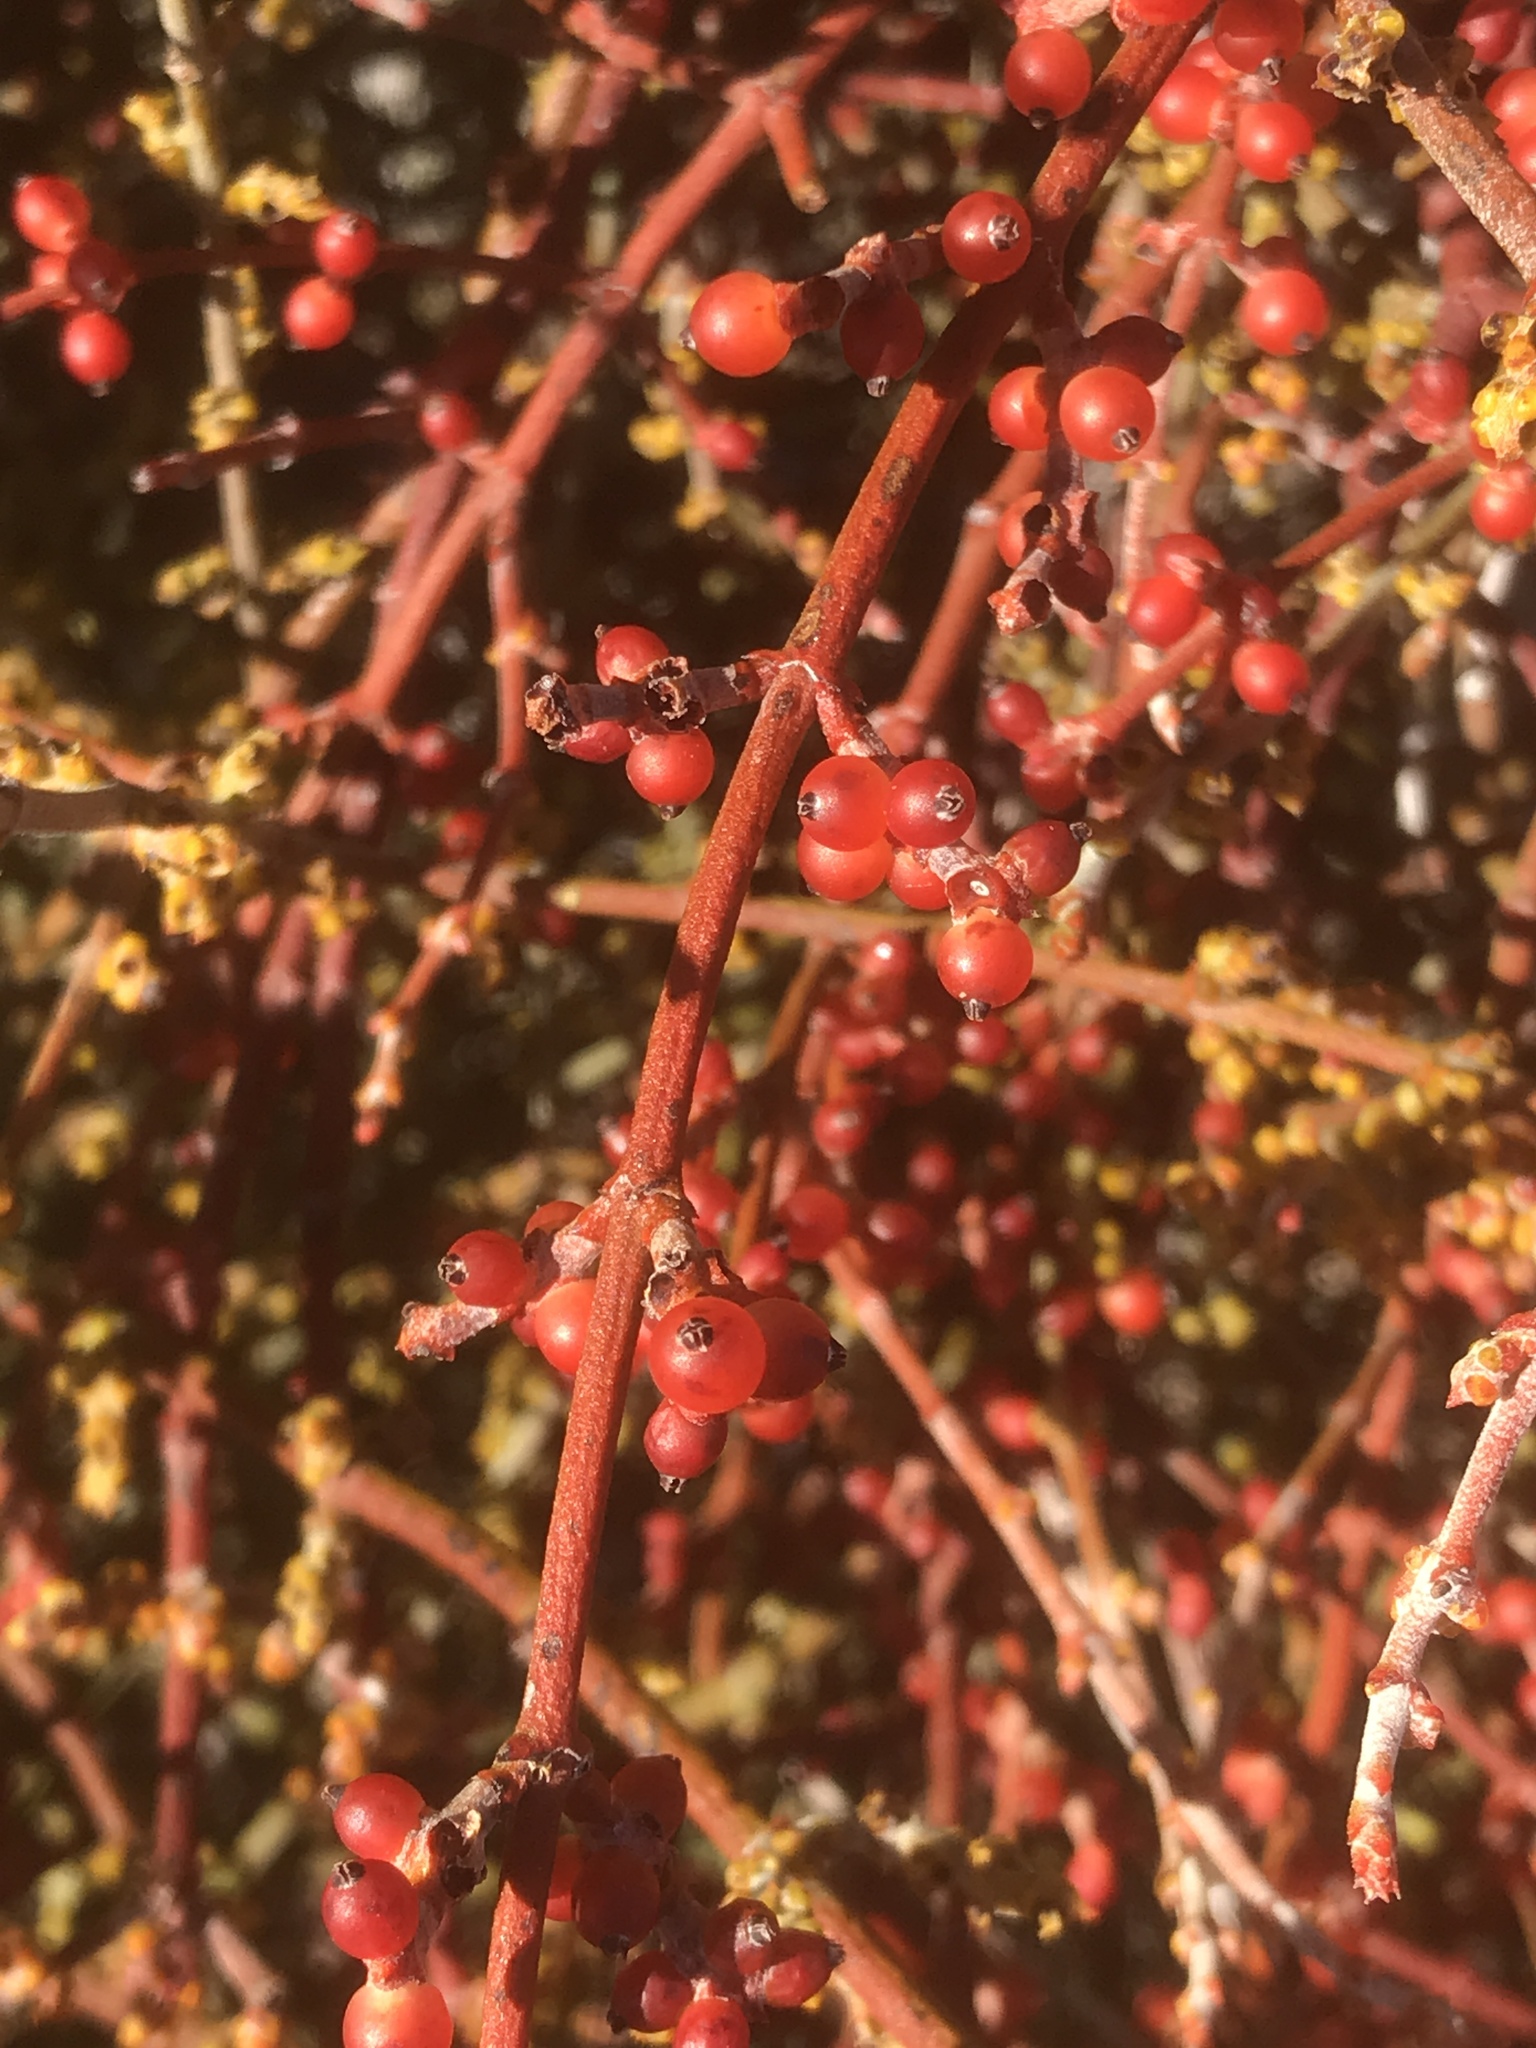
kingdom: Plantae
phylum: Tracheophyta
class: Magnoliopsida
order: Santalales
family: Viscaceae
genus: Phoradendron
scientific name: Phoradendron californicum
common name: Acacia mistletoe
